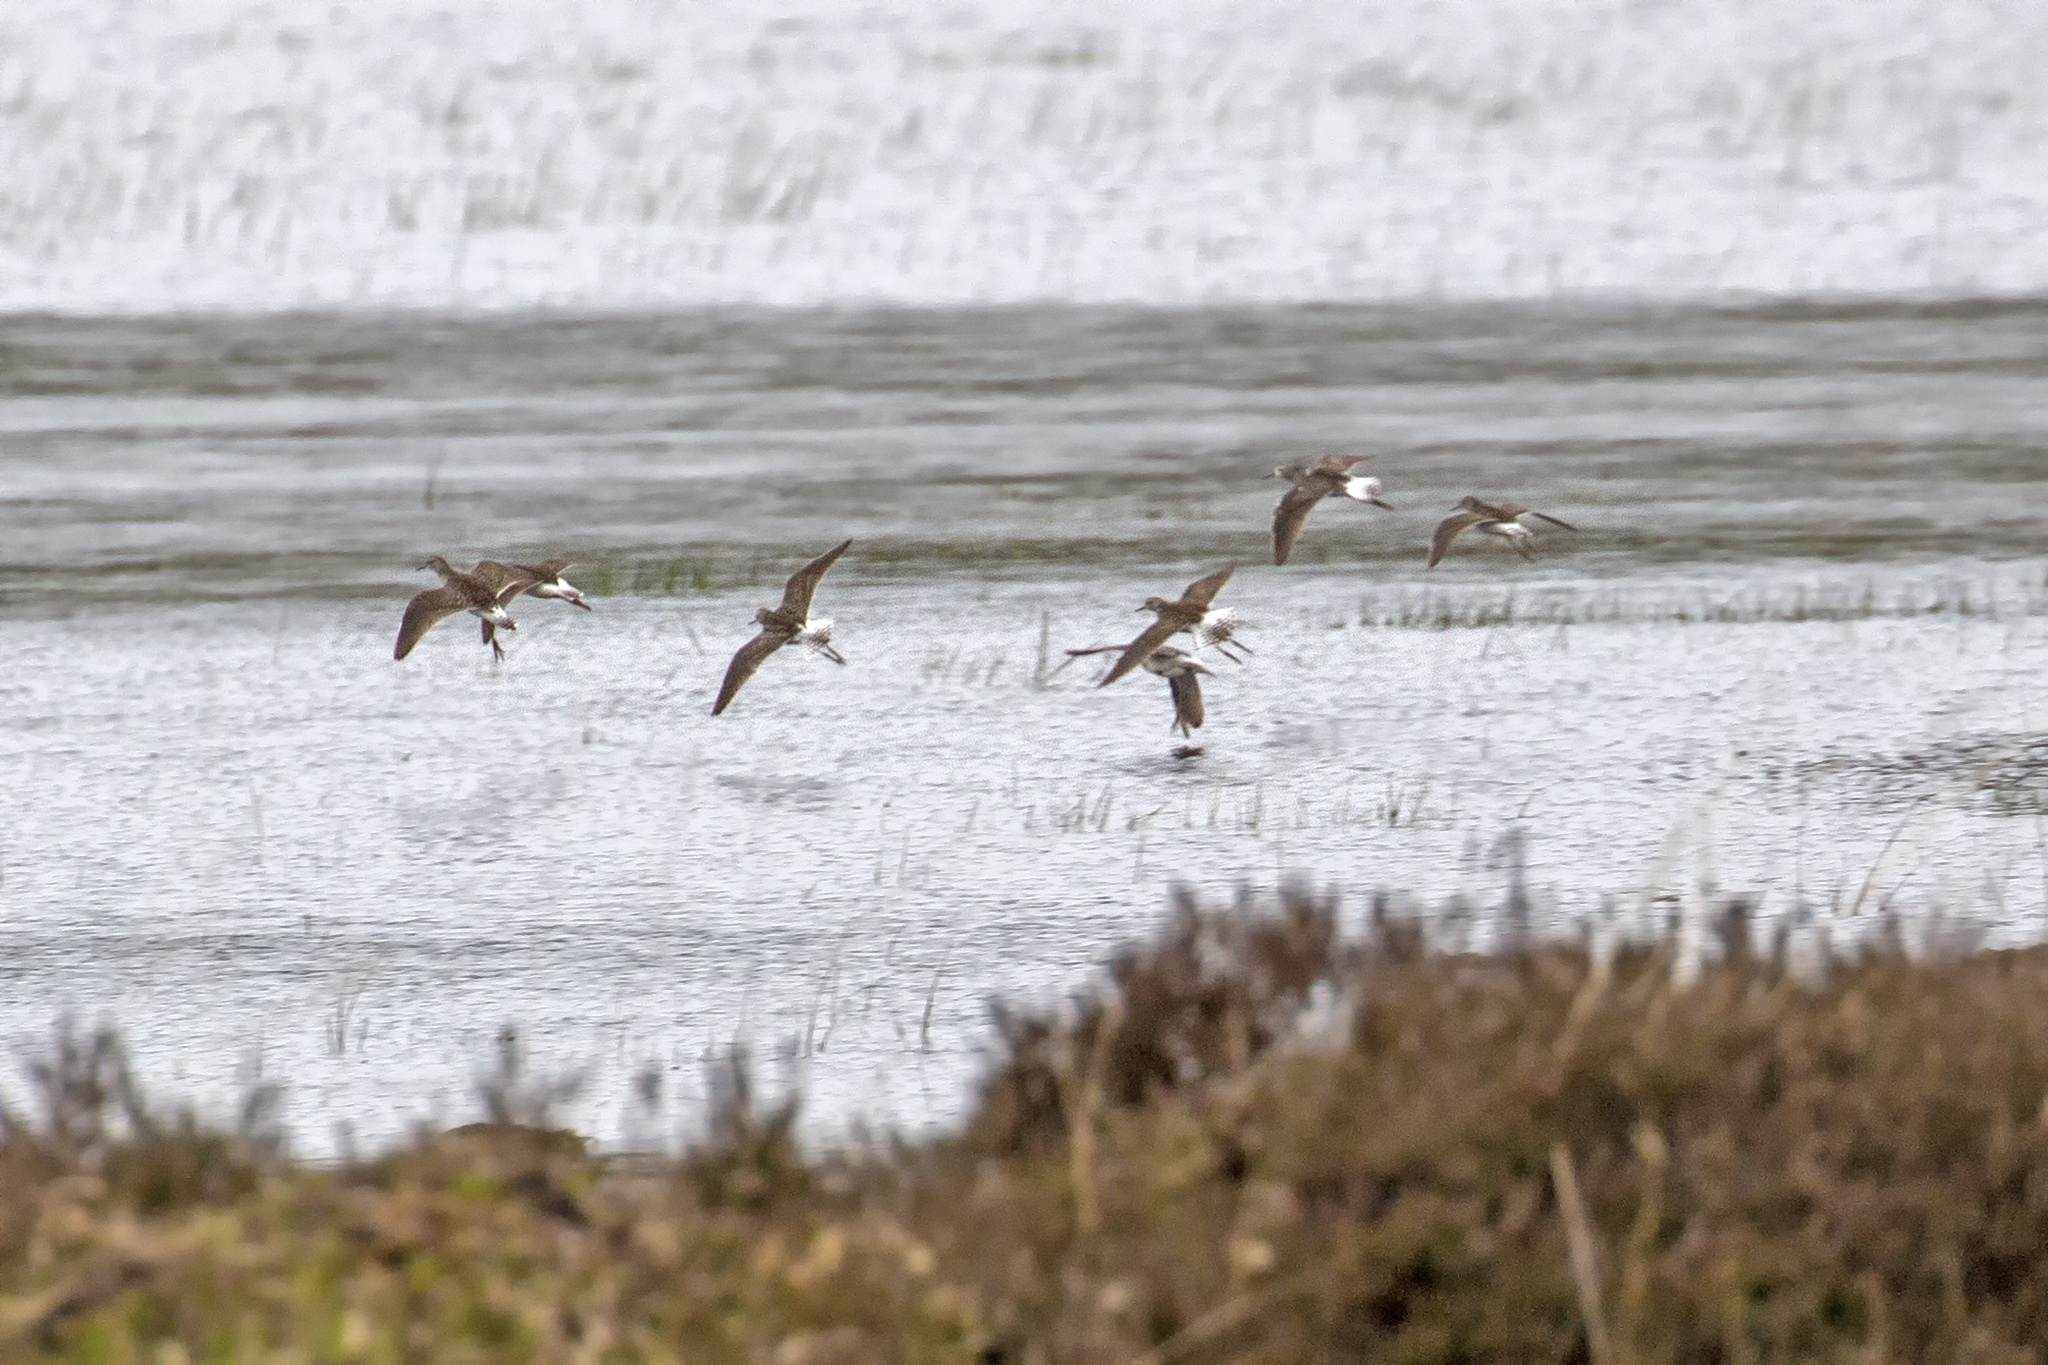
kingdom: Animalia
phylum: Chordata
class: Aves
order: Charadriiformes
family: Scolopacidae
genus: Tringa
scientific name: Tringa glareola
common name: Wood sandpiper
